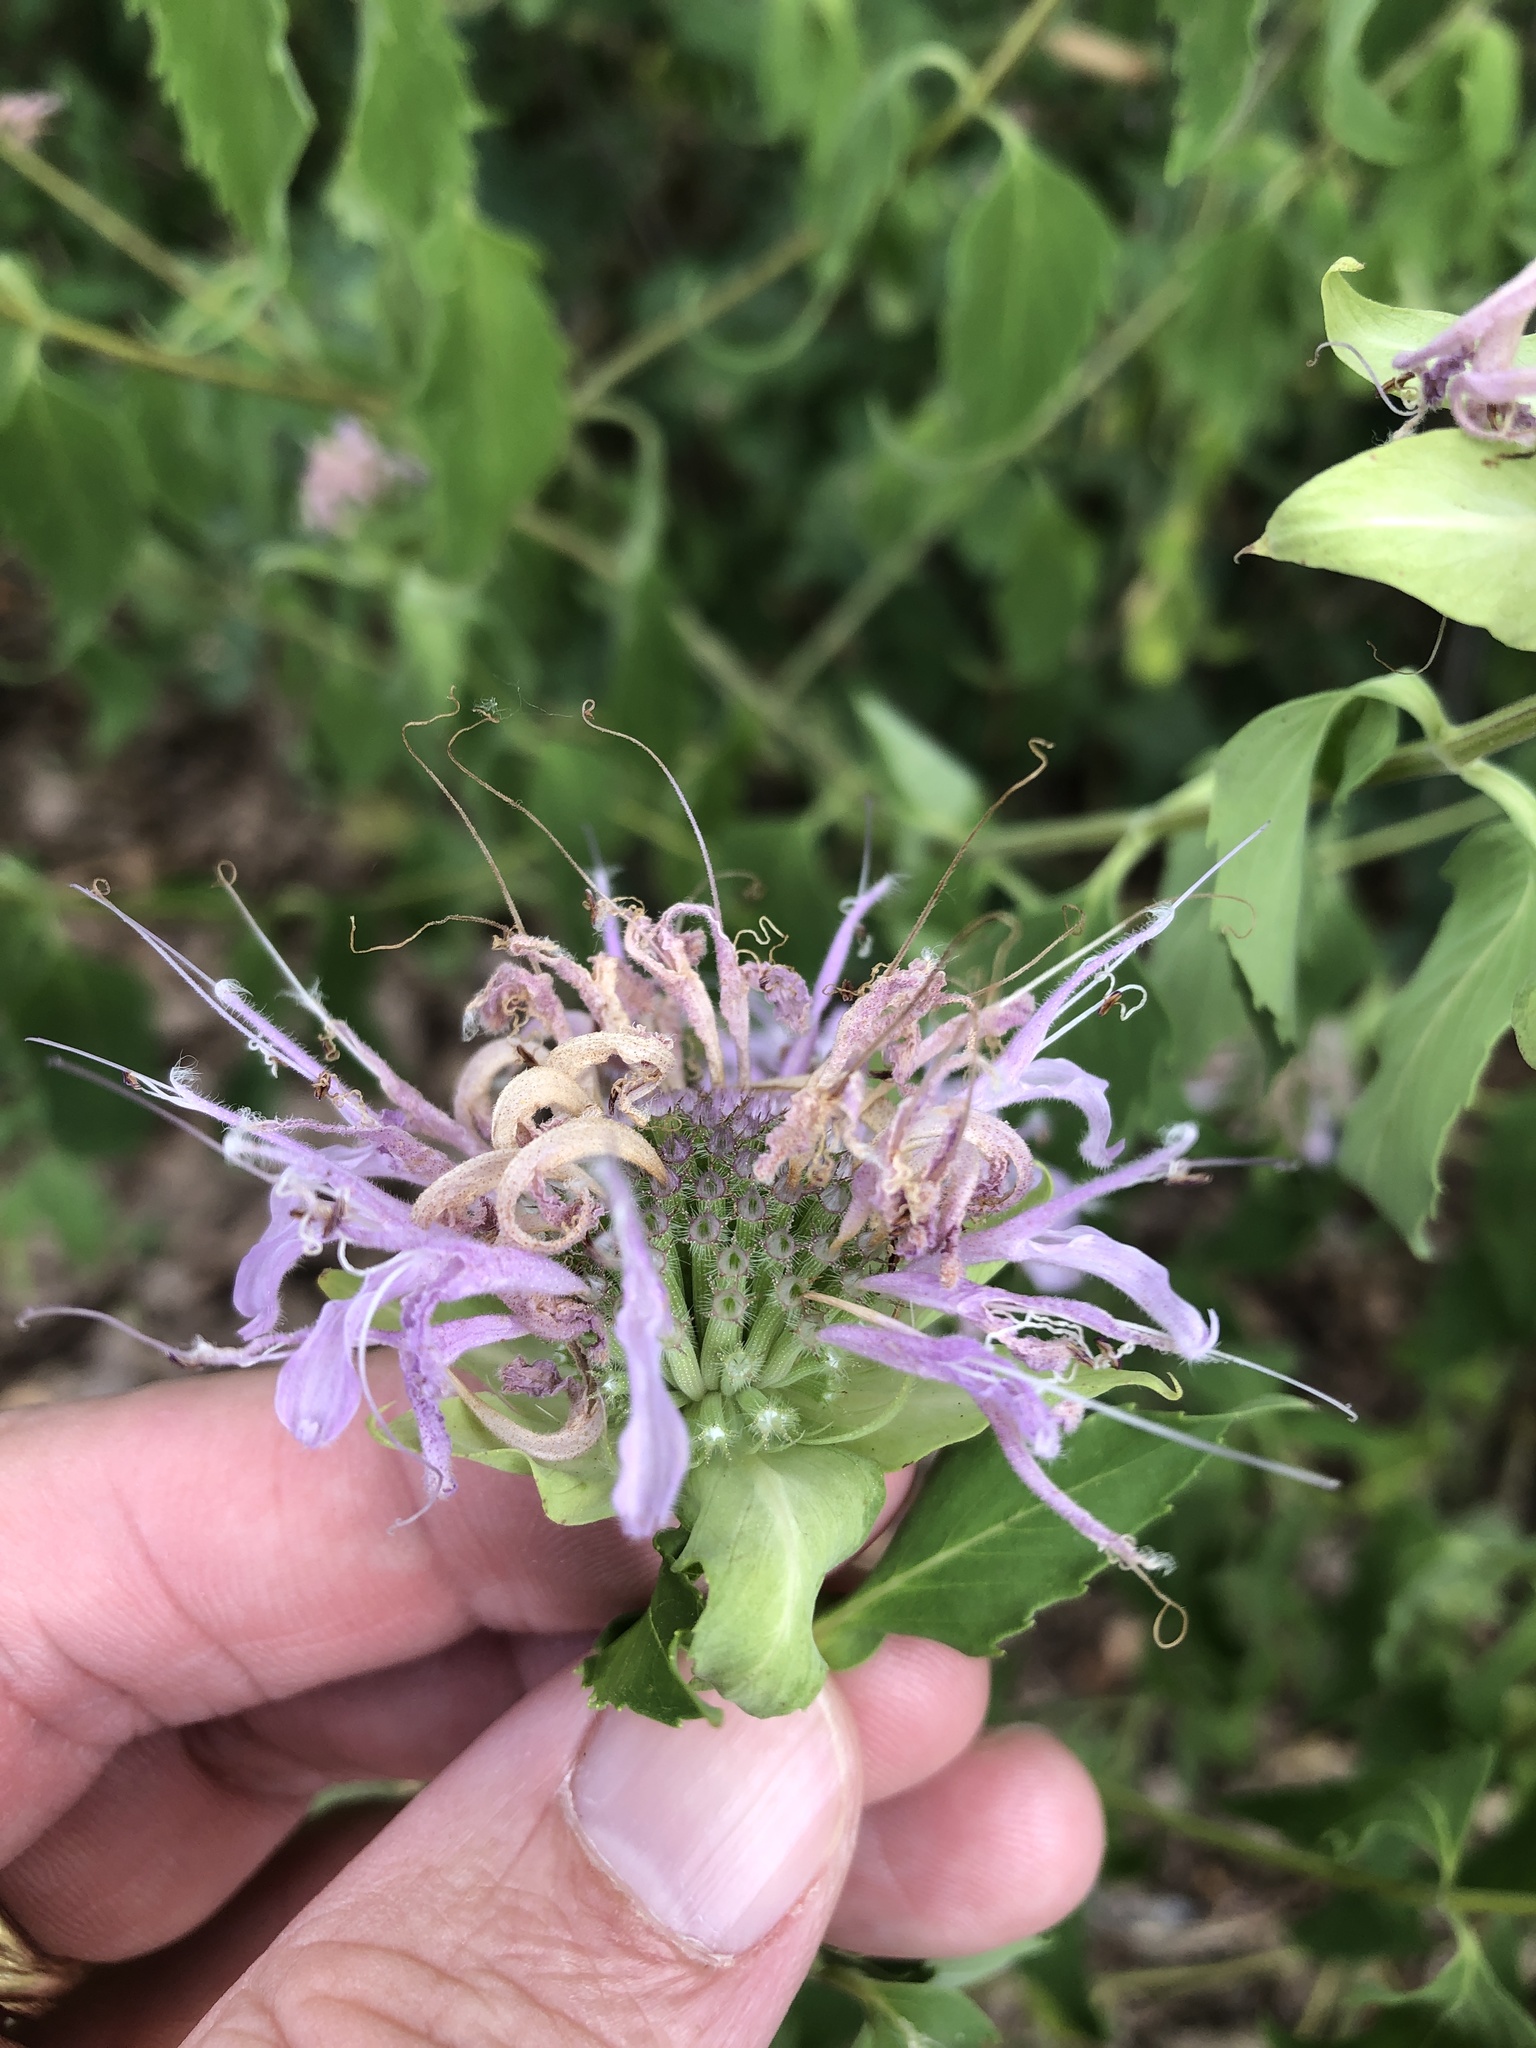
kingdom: Plantae
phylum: Tracheophyta
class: Magnoliopsida
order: Lamiales
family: Lamiaceae
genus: Monarda
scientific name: Monarda fistulosa
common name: Purple beebalm
